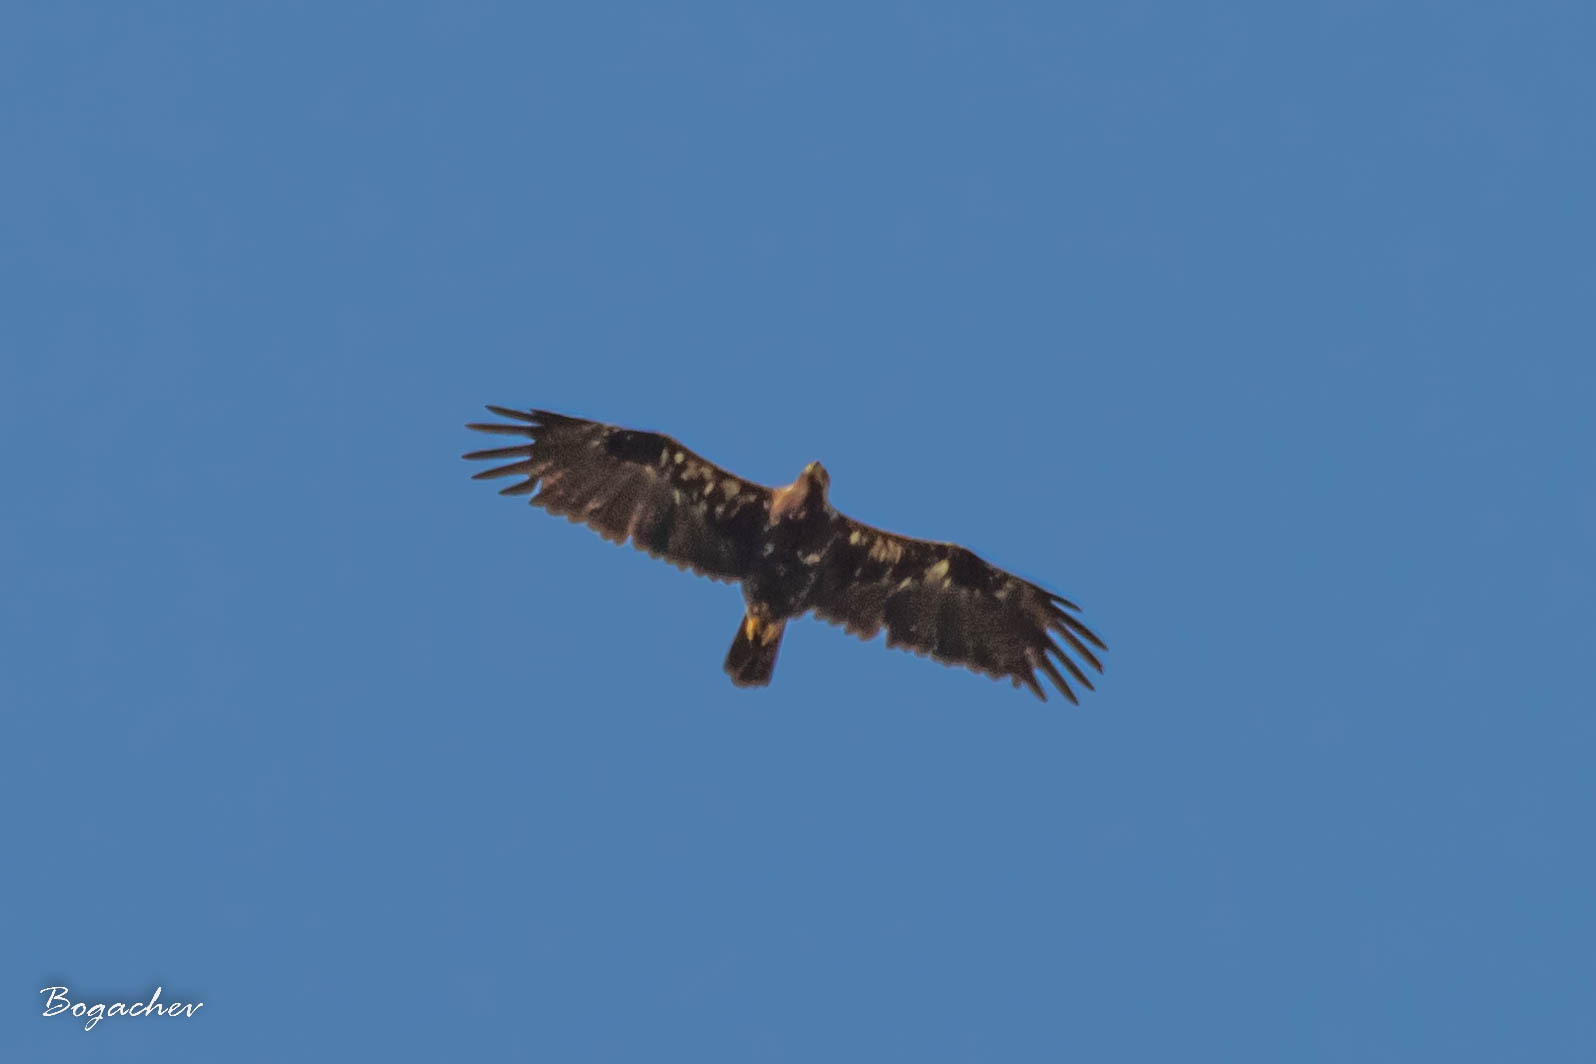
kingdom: Animalia
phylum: Chordata
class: Aves
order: Accipitriformes
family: Accipitridae
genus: Aquila
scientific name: Aquila heliaca
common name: Eastern imperial eagle
